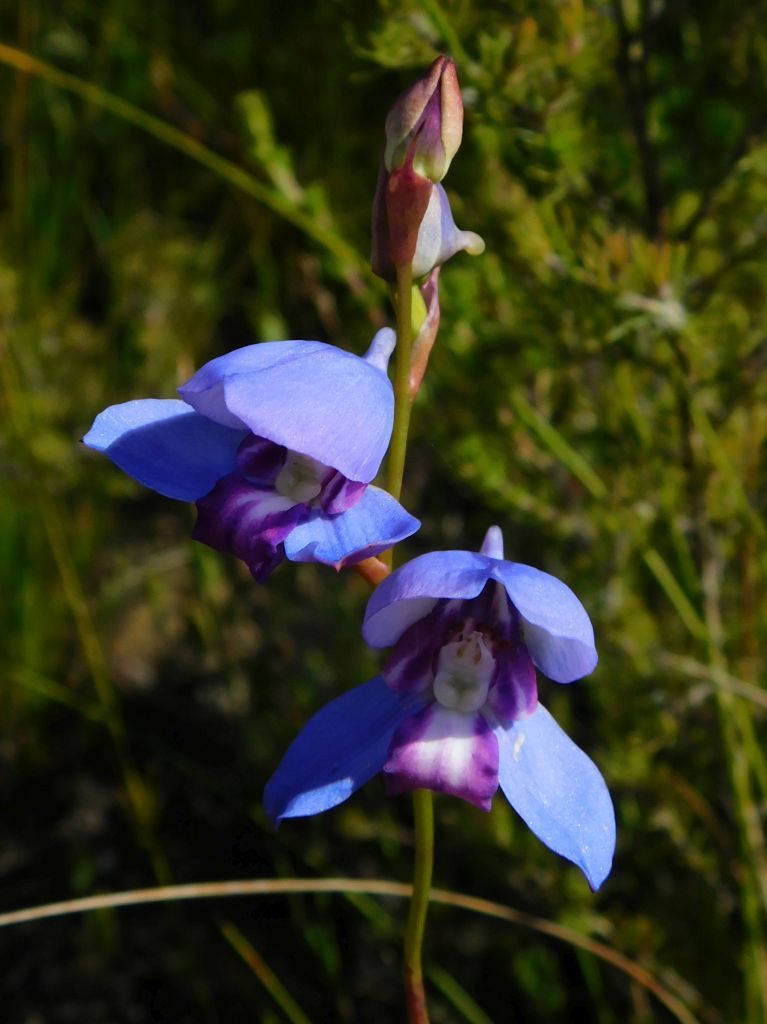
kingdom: Plantae
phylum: Tracheophyta
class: Liliopsida
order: Asparagales
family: Orchidaceae
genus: Disa
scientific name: Disa graminifolia
